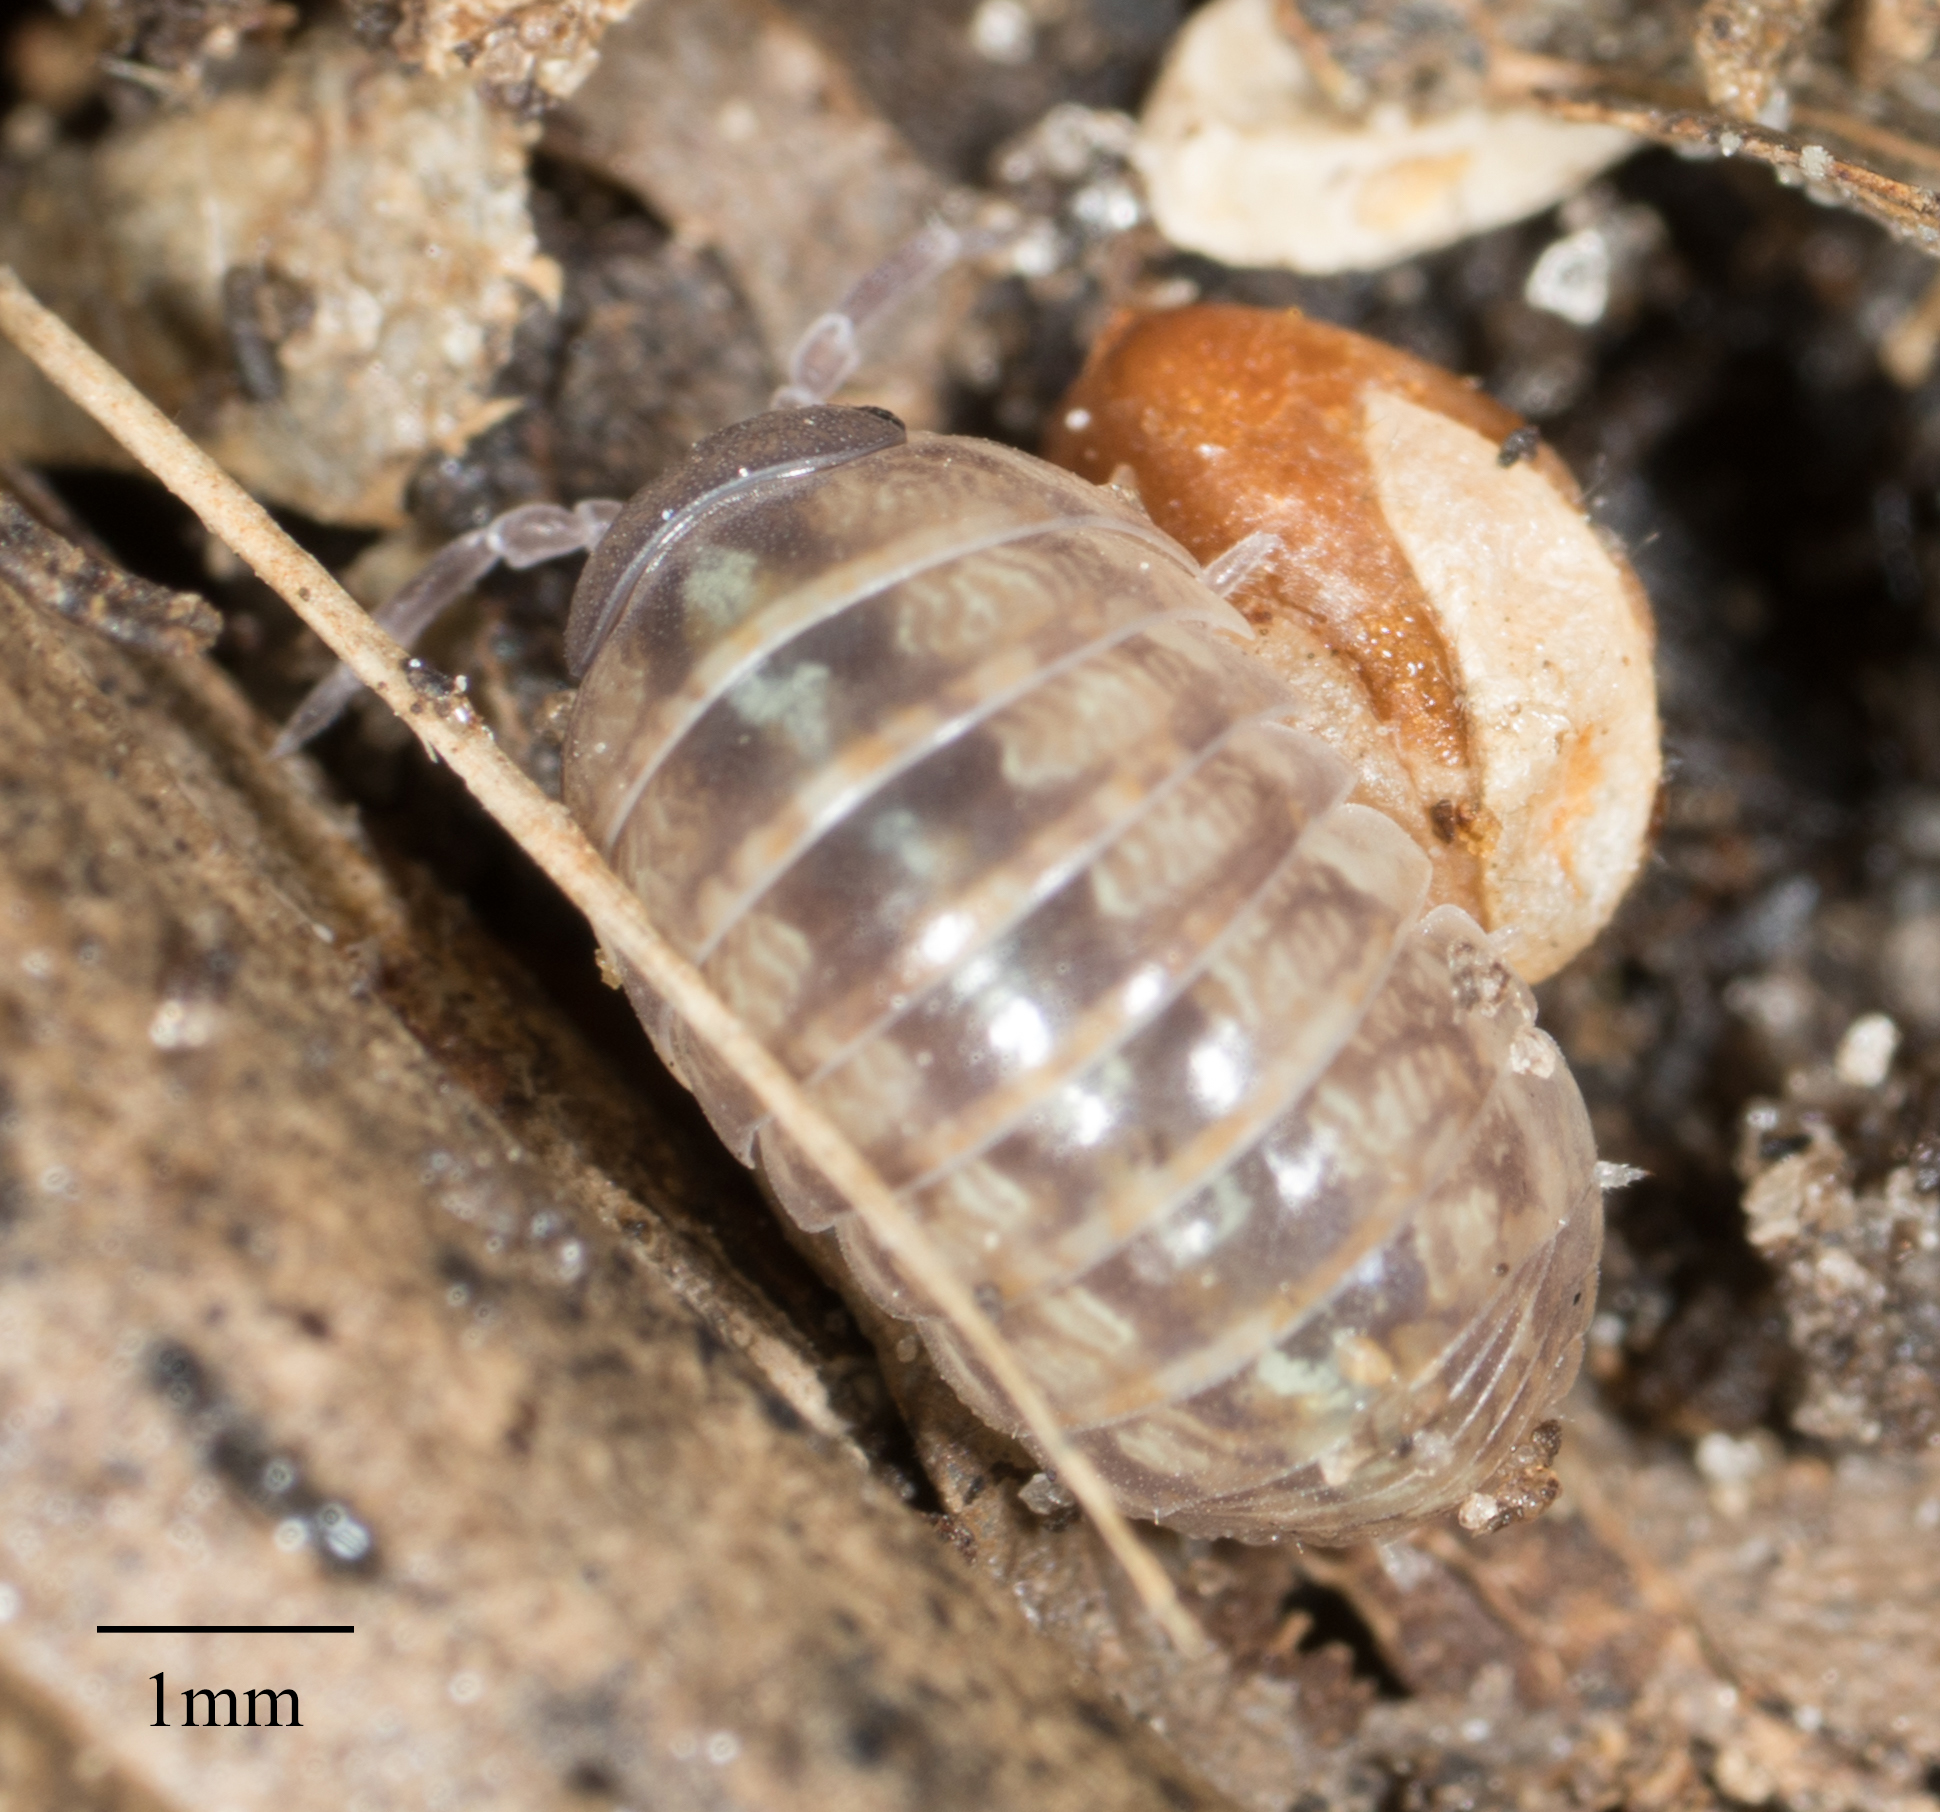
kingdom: Animalia
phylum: Arthropoda
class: Malacostraca
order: Isopoda
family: Armadillidiidae
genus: Armadillidium
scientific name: Armadillidium vulgare
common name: Common pill woodlouse
